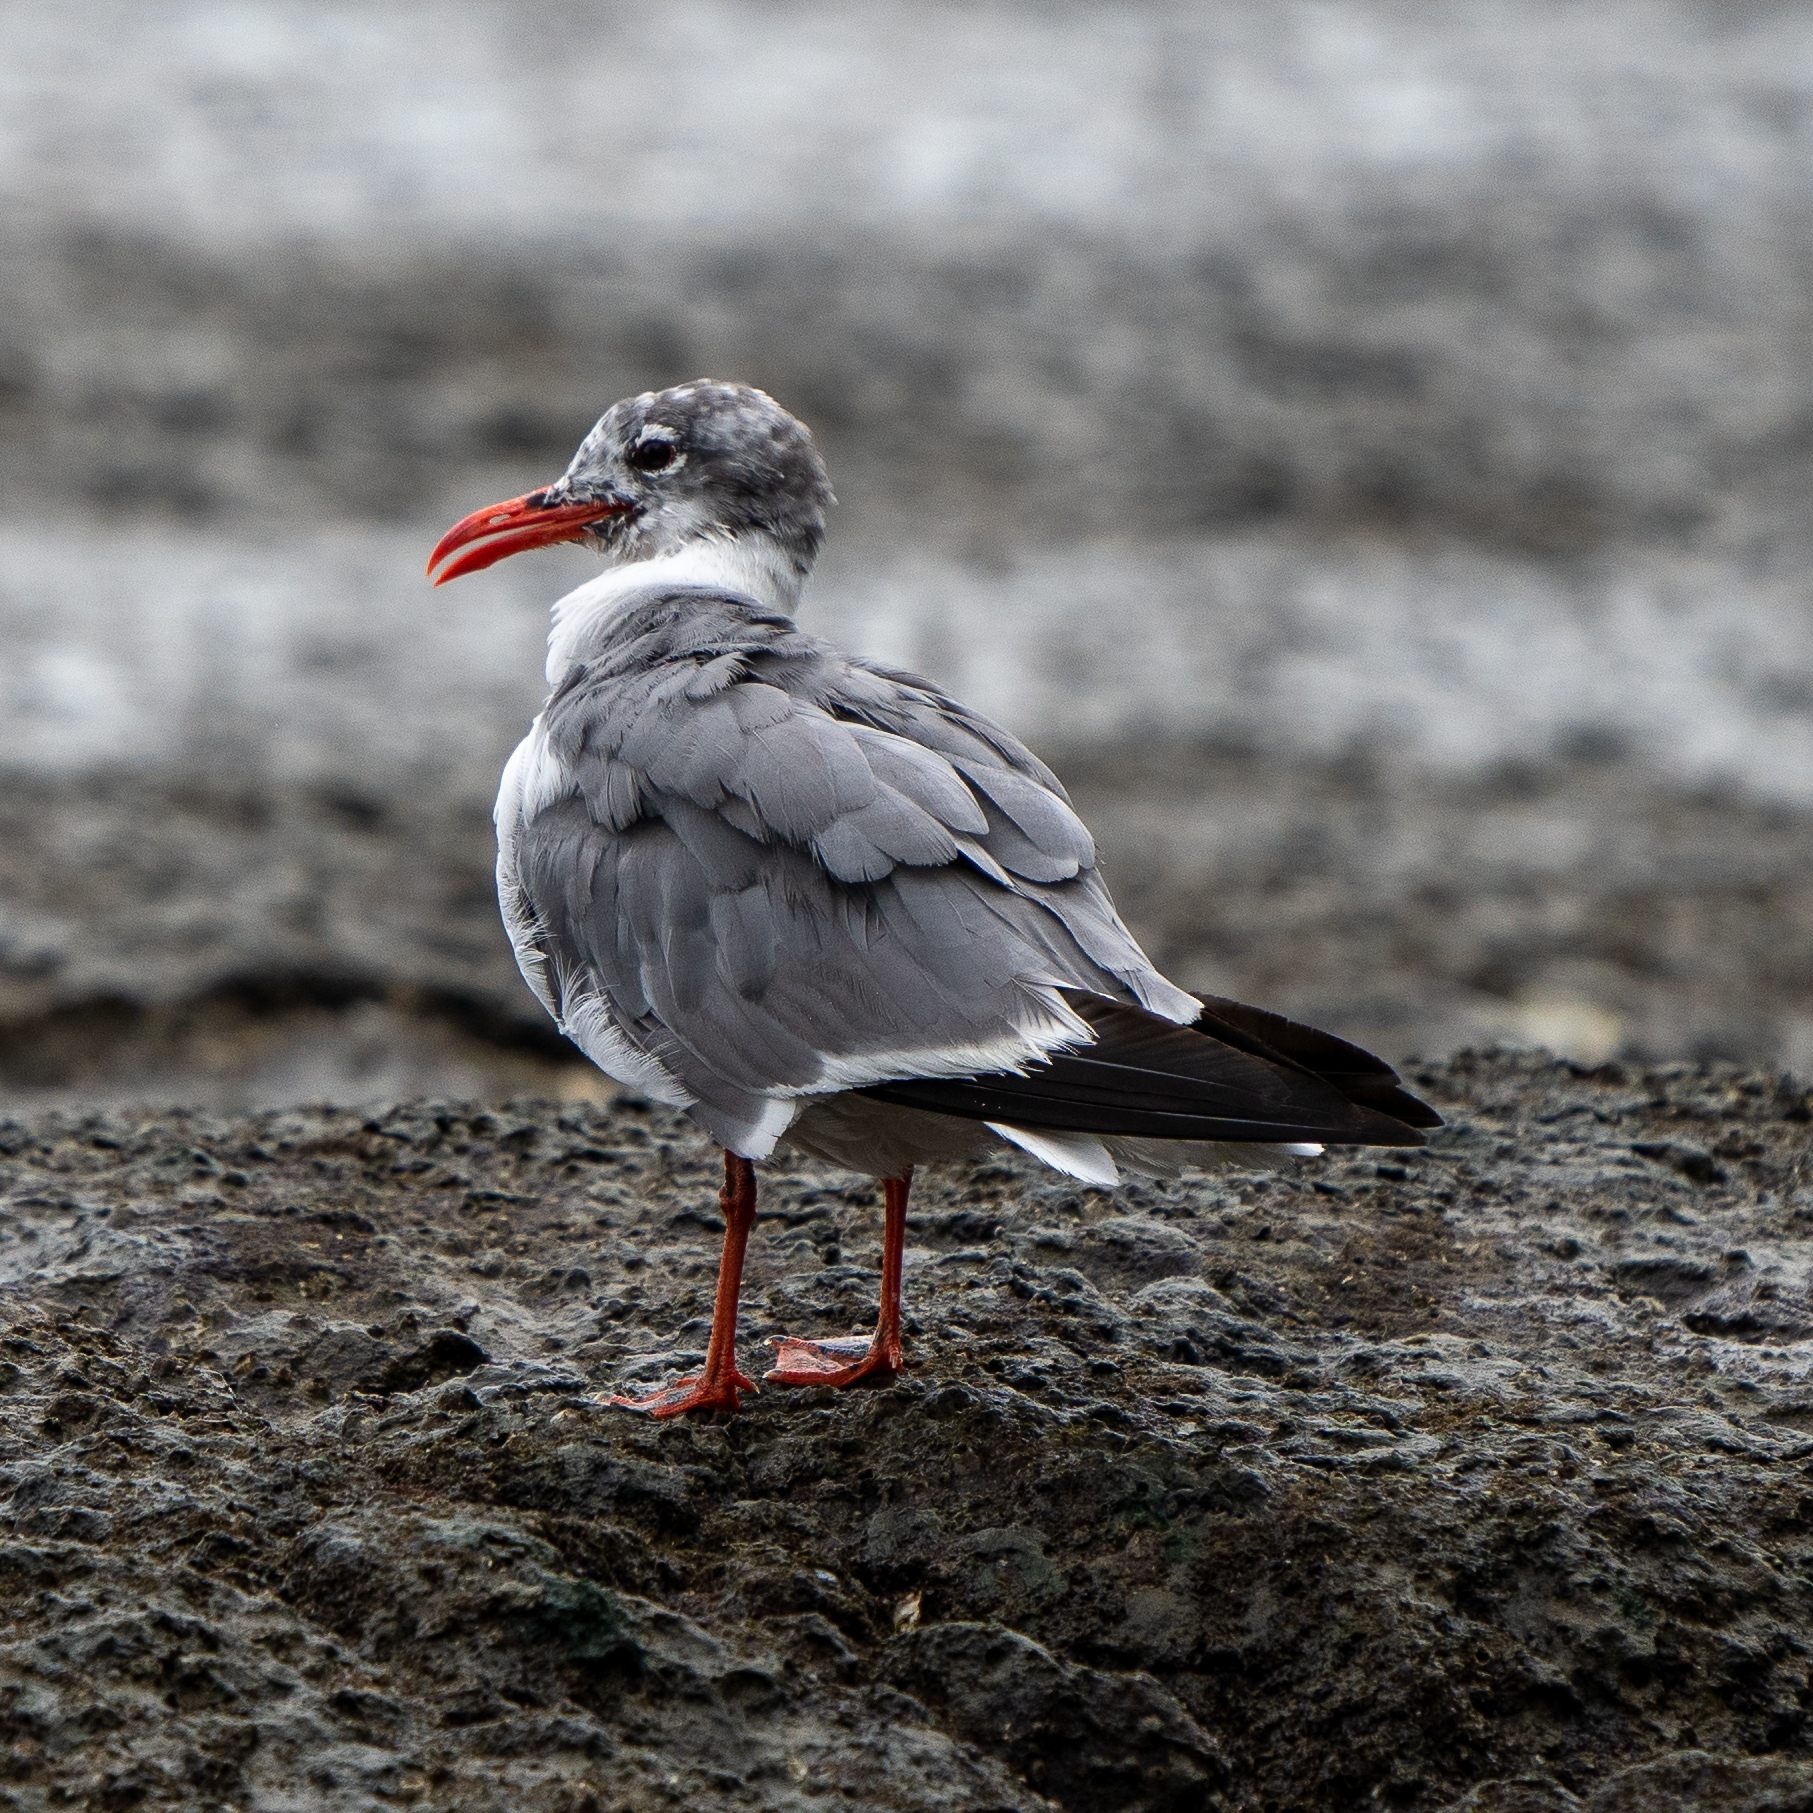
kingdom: Animalia
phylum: Chordata
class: Aves
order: Charadriiformes
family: Laridae
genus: Leucophaeus
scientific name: Leucophaeus atricilla
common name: Laughing gull
